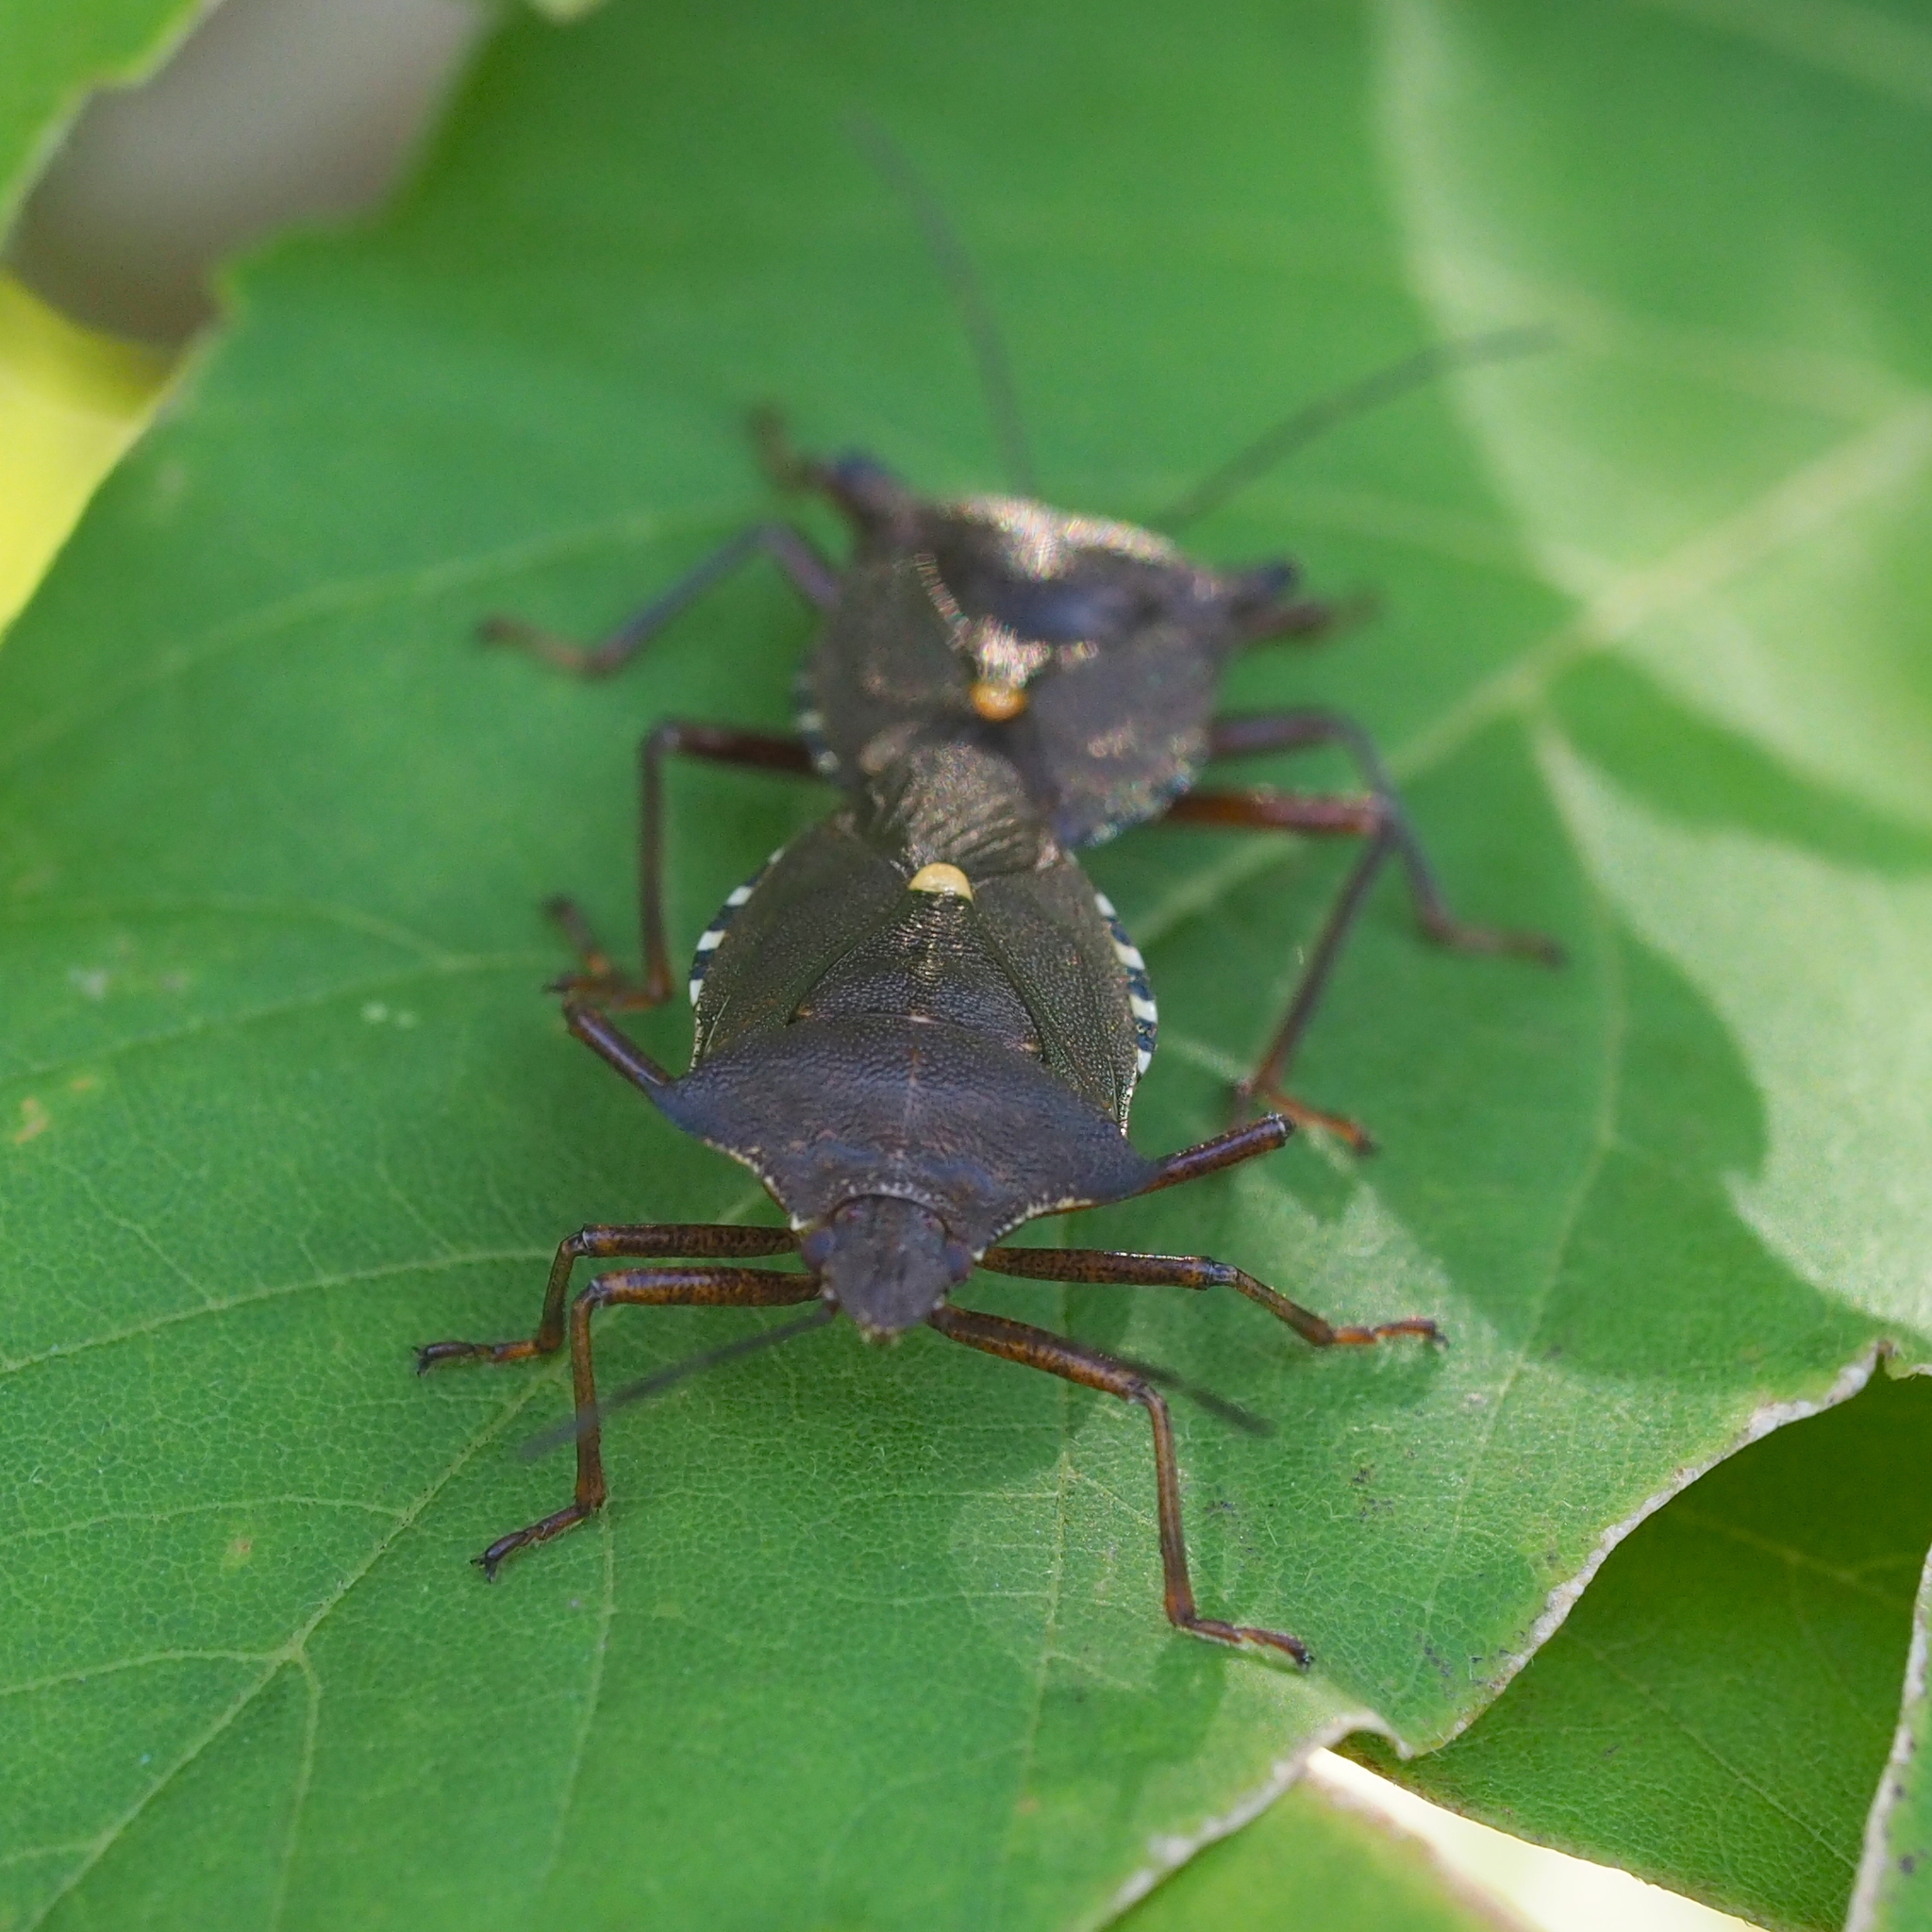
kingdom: Animalia
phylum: Arthropoda
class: Insecta
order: Hemiptera
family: Pentatomidae
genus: Pentatoma
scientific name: Pentatoma rufipes
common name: Forest bug
